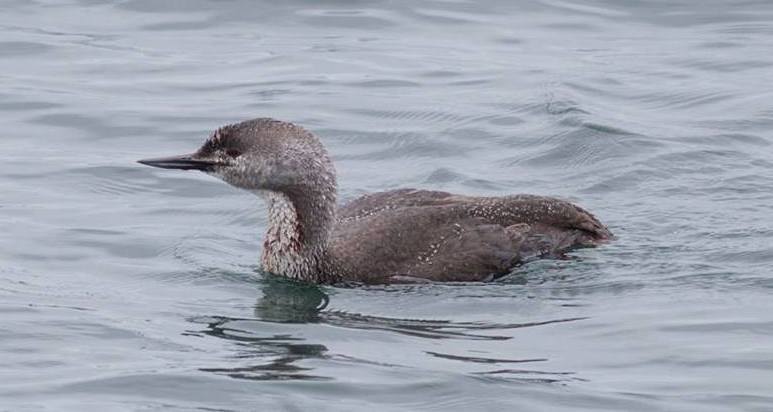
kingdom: Animalia
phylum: Chordata
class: Aves
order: Gaviiformes
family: Gaviidae
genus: Gavia
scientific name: Gavia stellata
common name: Red-throated loon
